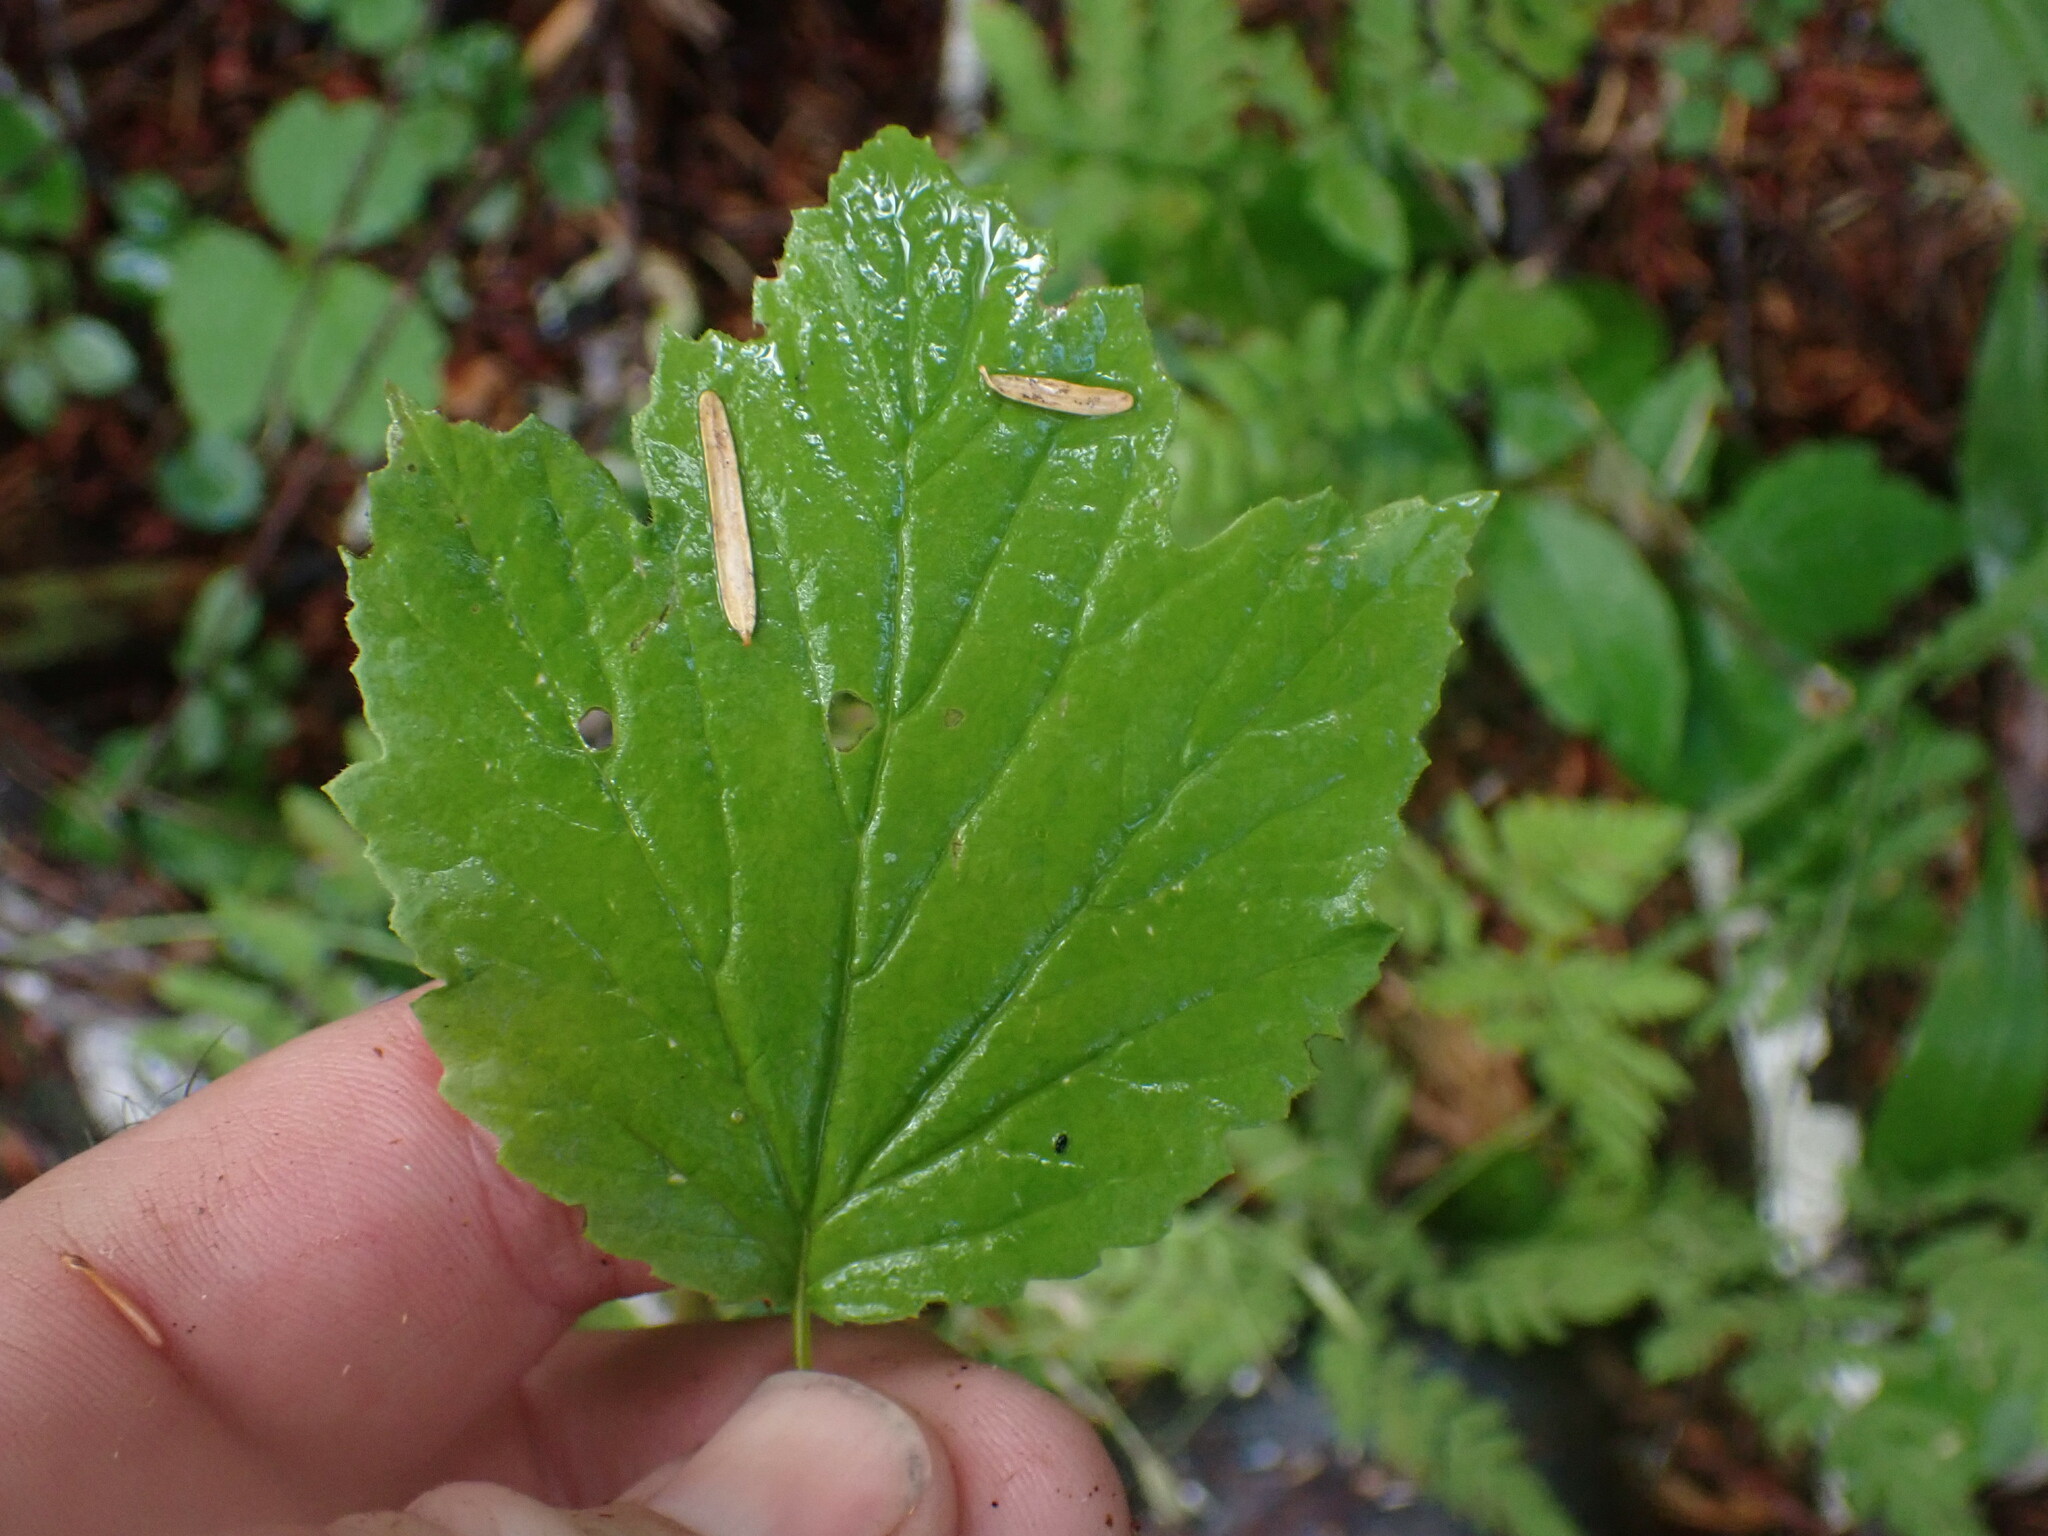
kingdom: Plantae
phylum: Tracheophyta
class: Magnoliopsida
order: Dipsacales
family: Viburnaceae
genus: Viburnum
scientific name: Viburnum edule
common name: Mooseberry
